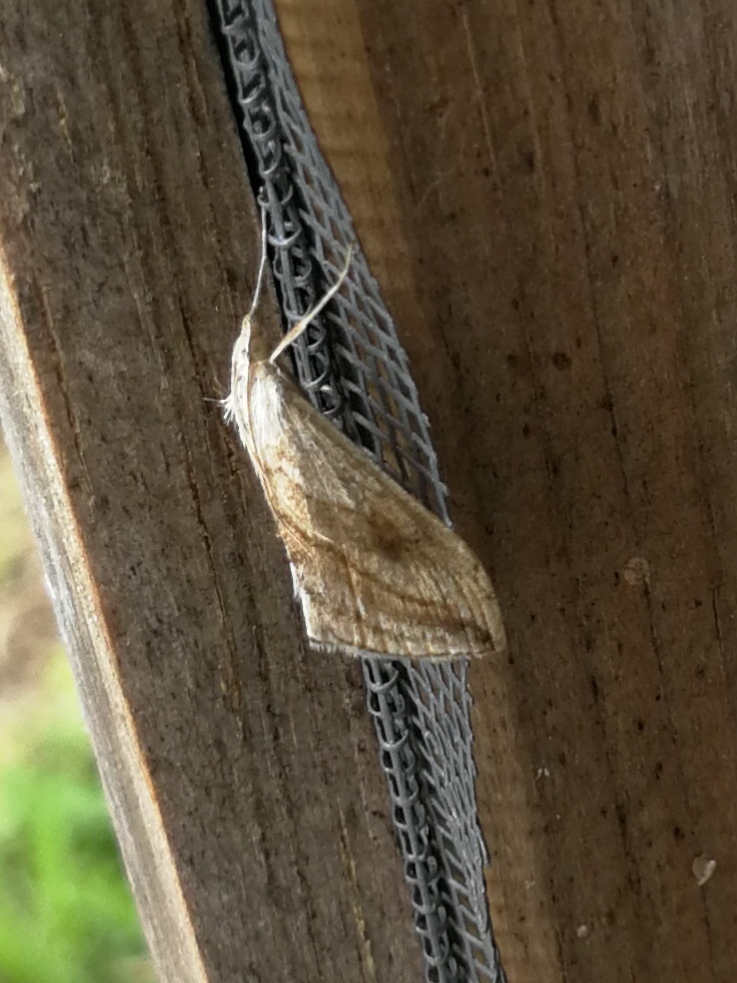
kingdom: Animalia
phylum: Arthropoda
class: Insecta
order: Lepidoptera
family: Crambidae
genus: Evergestis
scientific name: Evergestis forficalis
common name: Garden pebble
